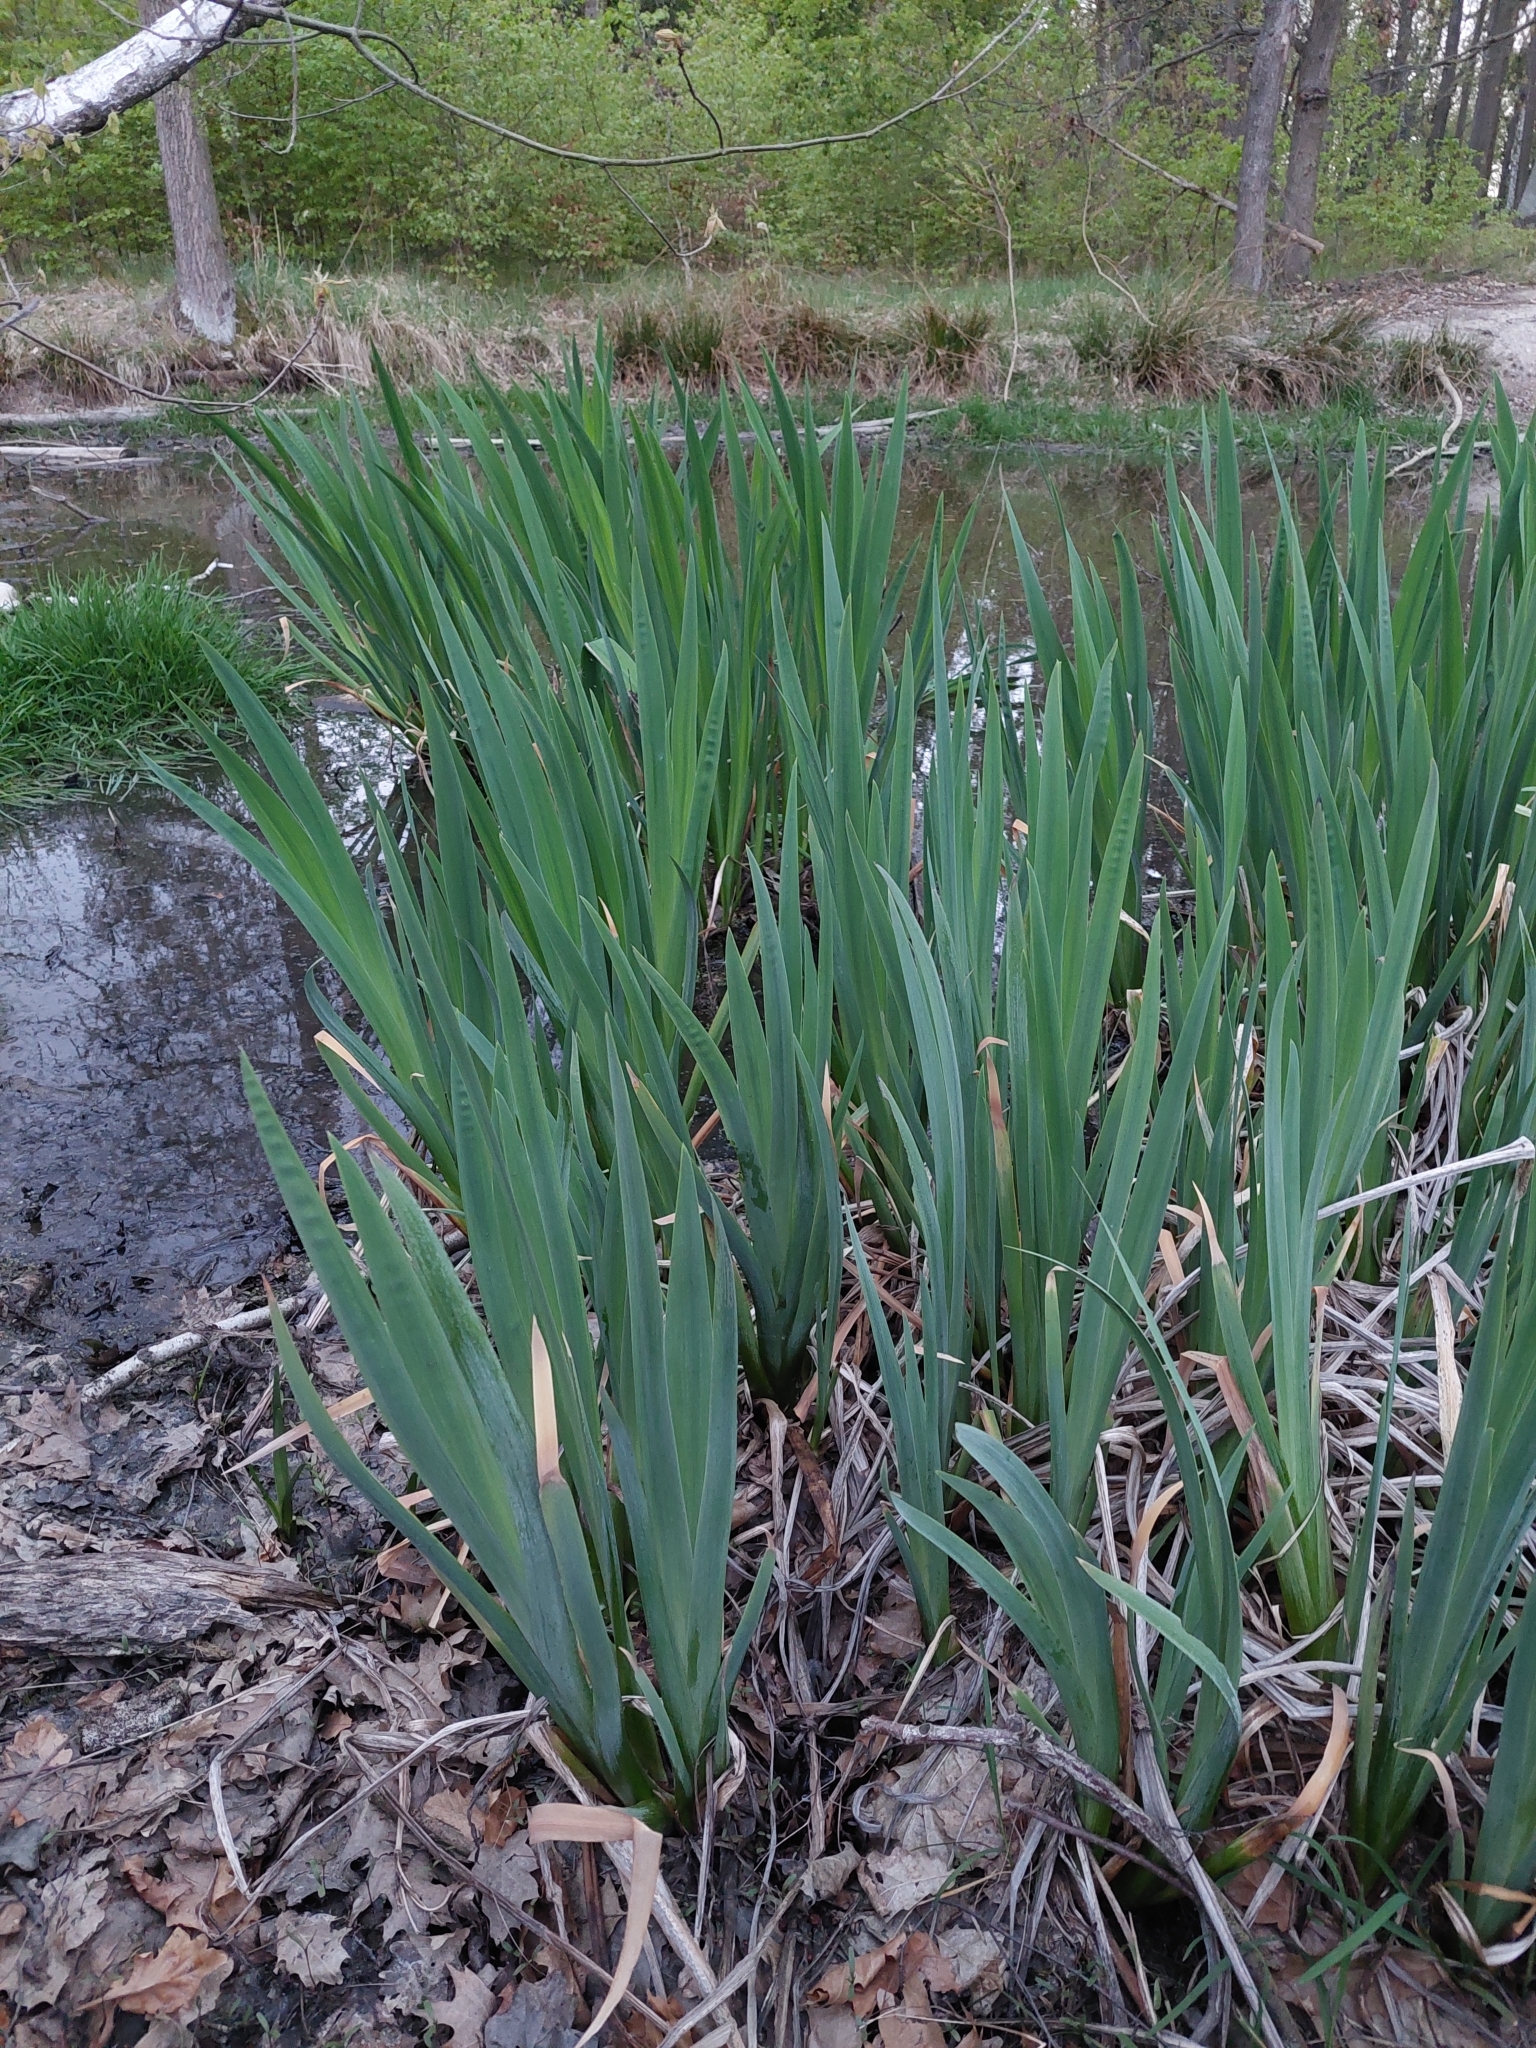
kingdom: Plantae
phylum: Tracheophyta
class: Liliopsida
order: Asparagales
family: Iridaceae
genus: Iris
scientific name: Iris pseudacorus
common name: Yellow flag
